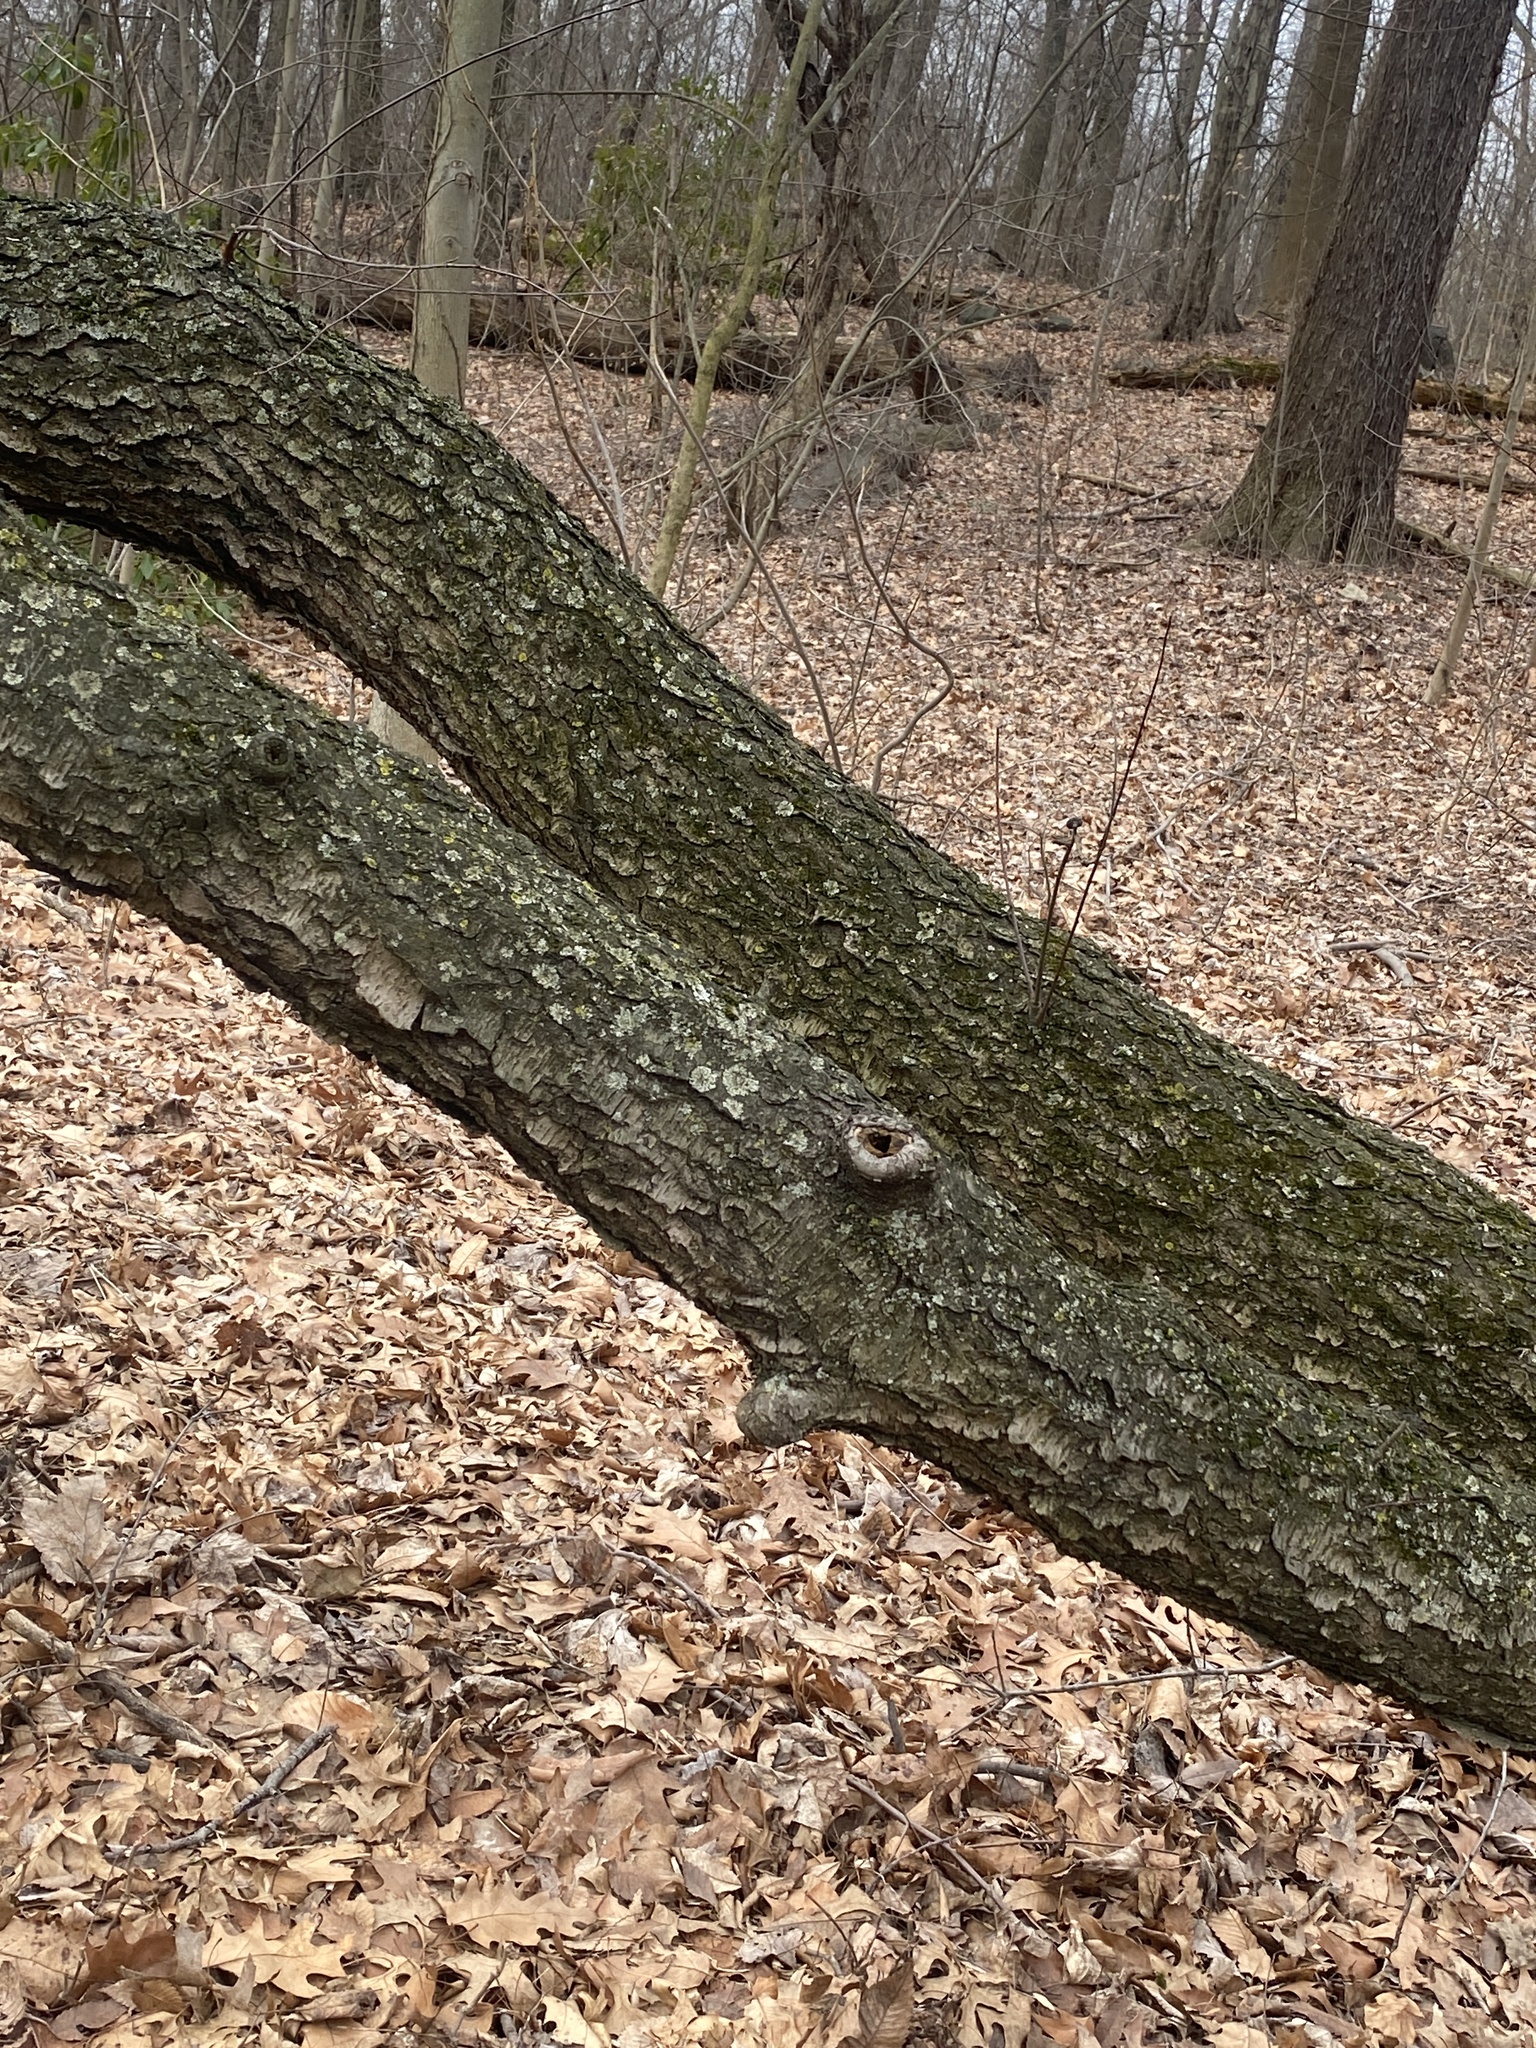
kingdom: Plantae
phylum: Tracheophyta
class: Magnoliopsida
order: Rosales
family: Rosaceae
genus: Prunus
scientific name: Prunus serotina
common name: Black cherry
